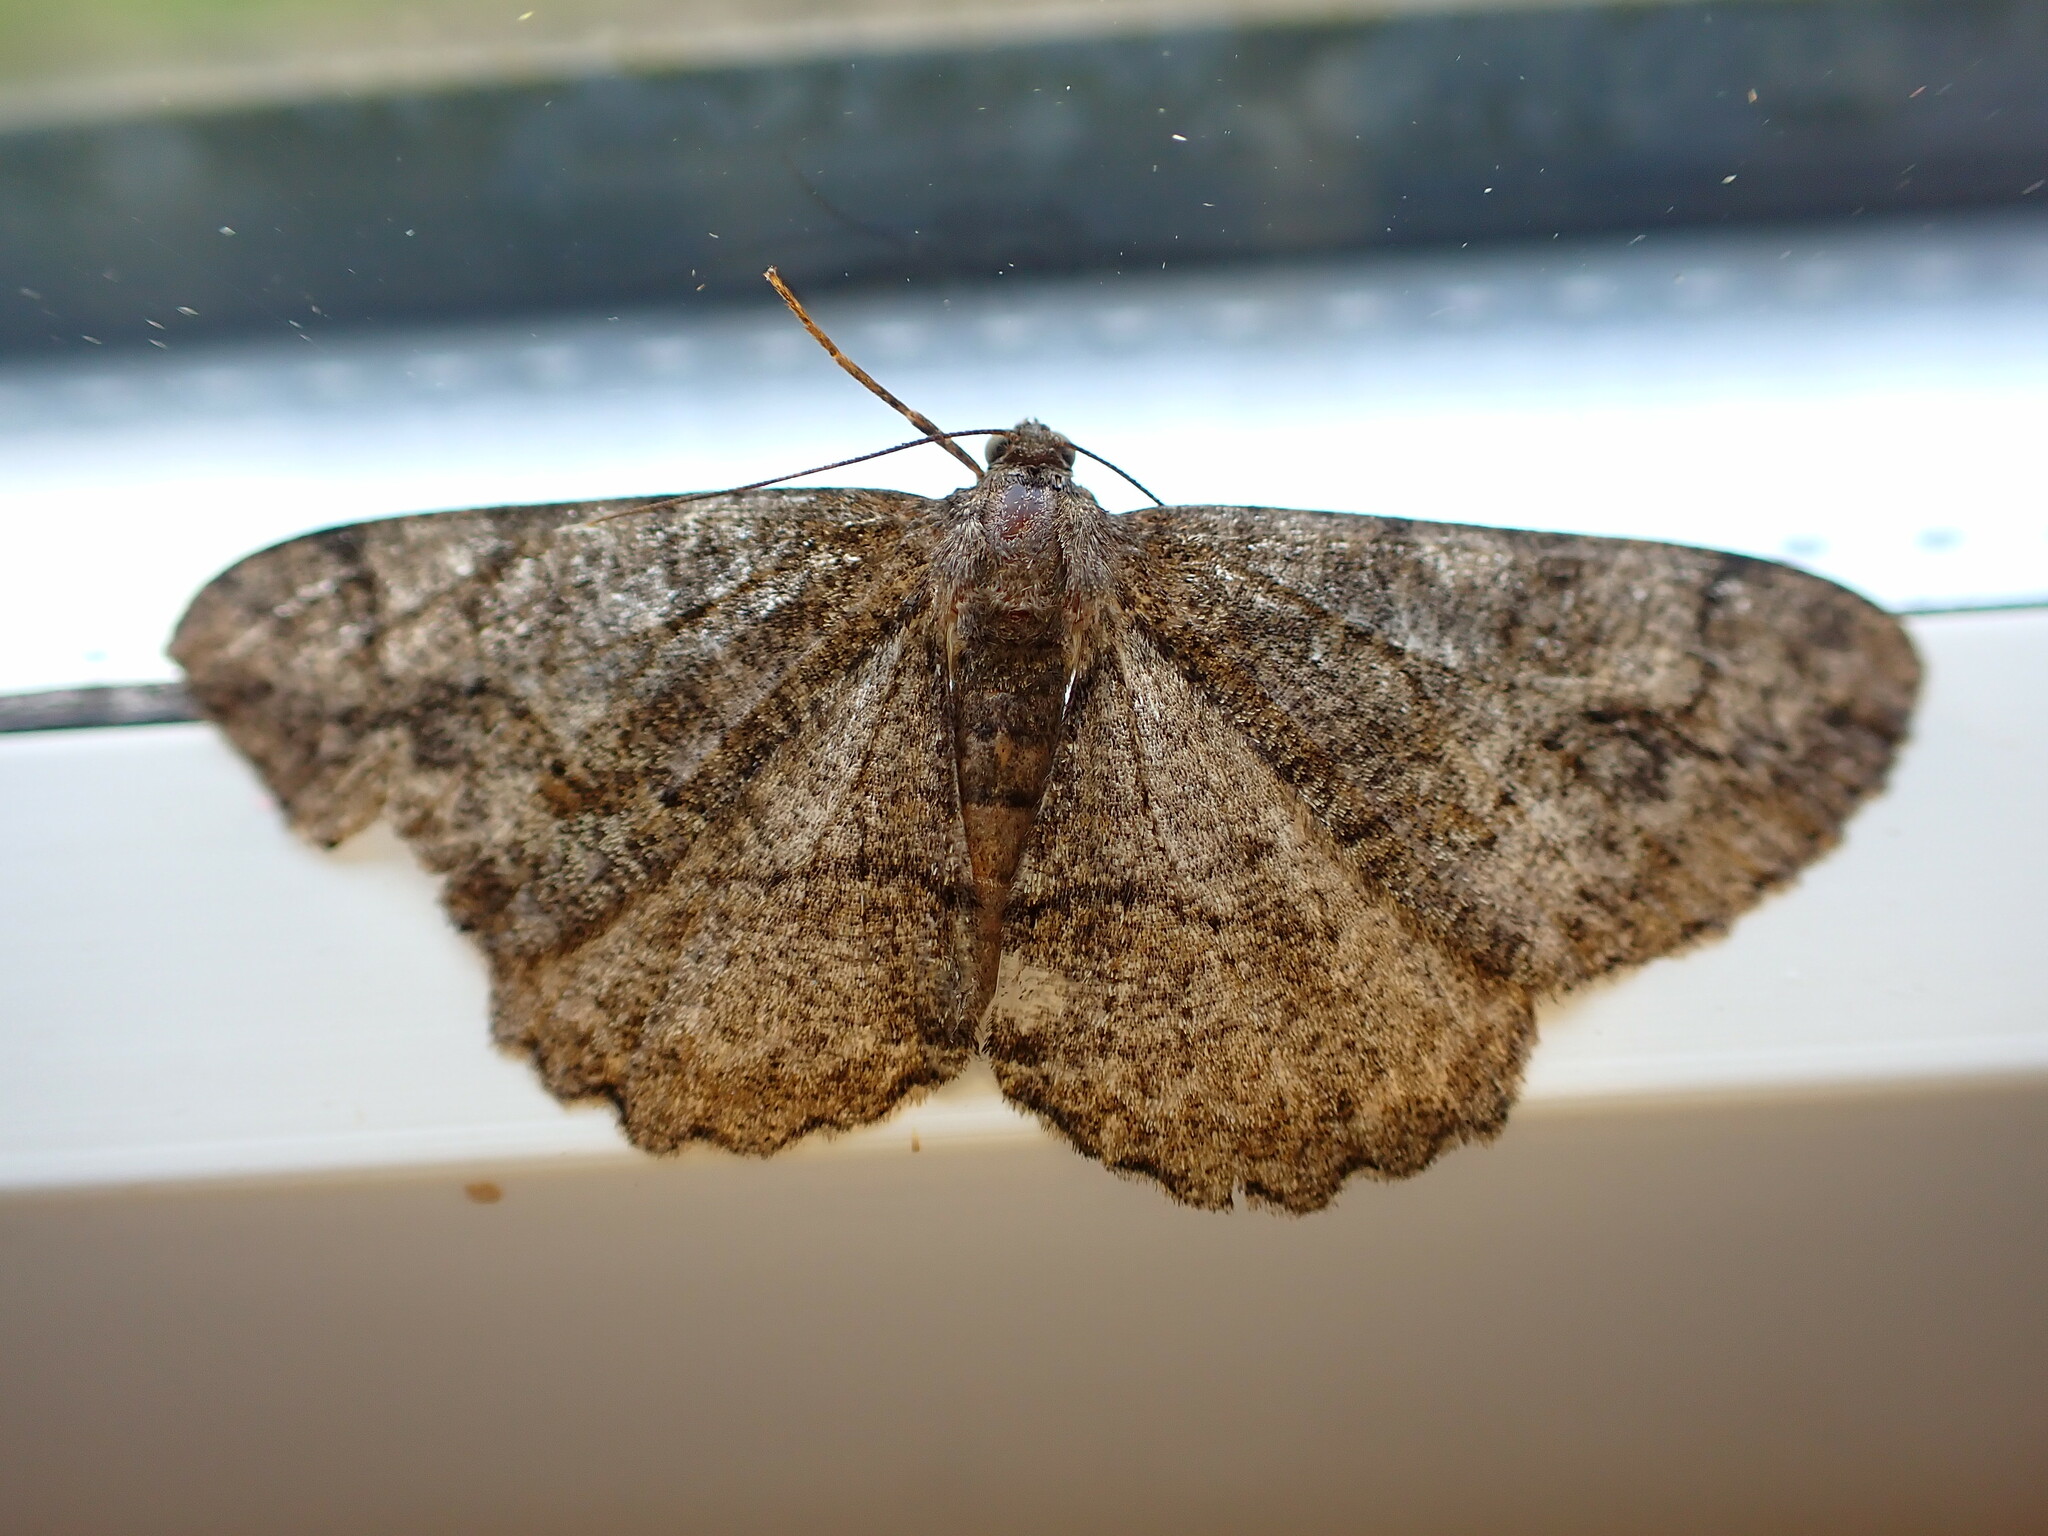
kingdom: Animalia
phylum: Arthropoda
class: Insecta
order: Lepidoptera
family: Geometridae
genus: Alcis
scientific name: Alcis repandata
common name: Mottled beauty
